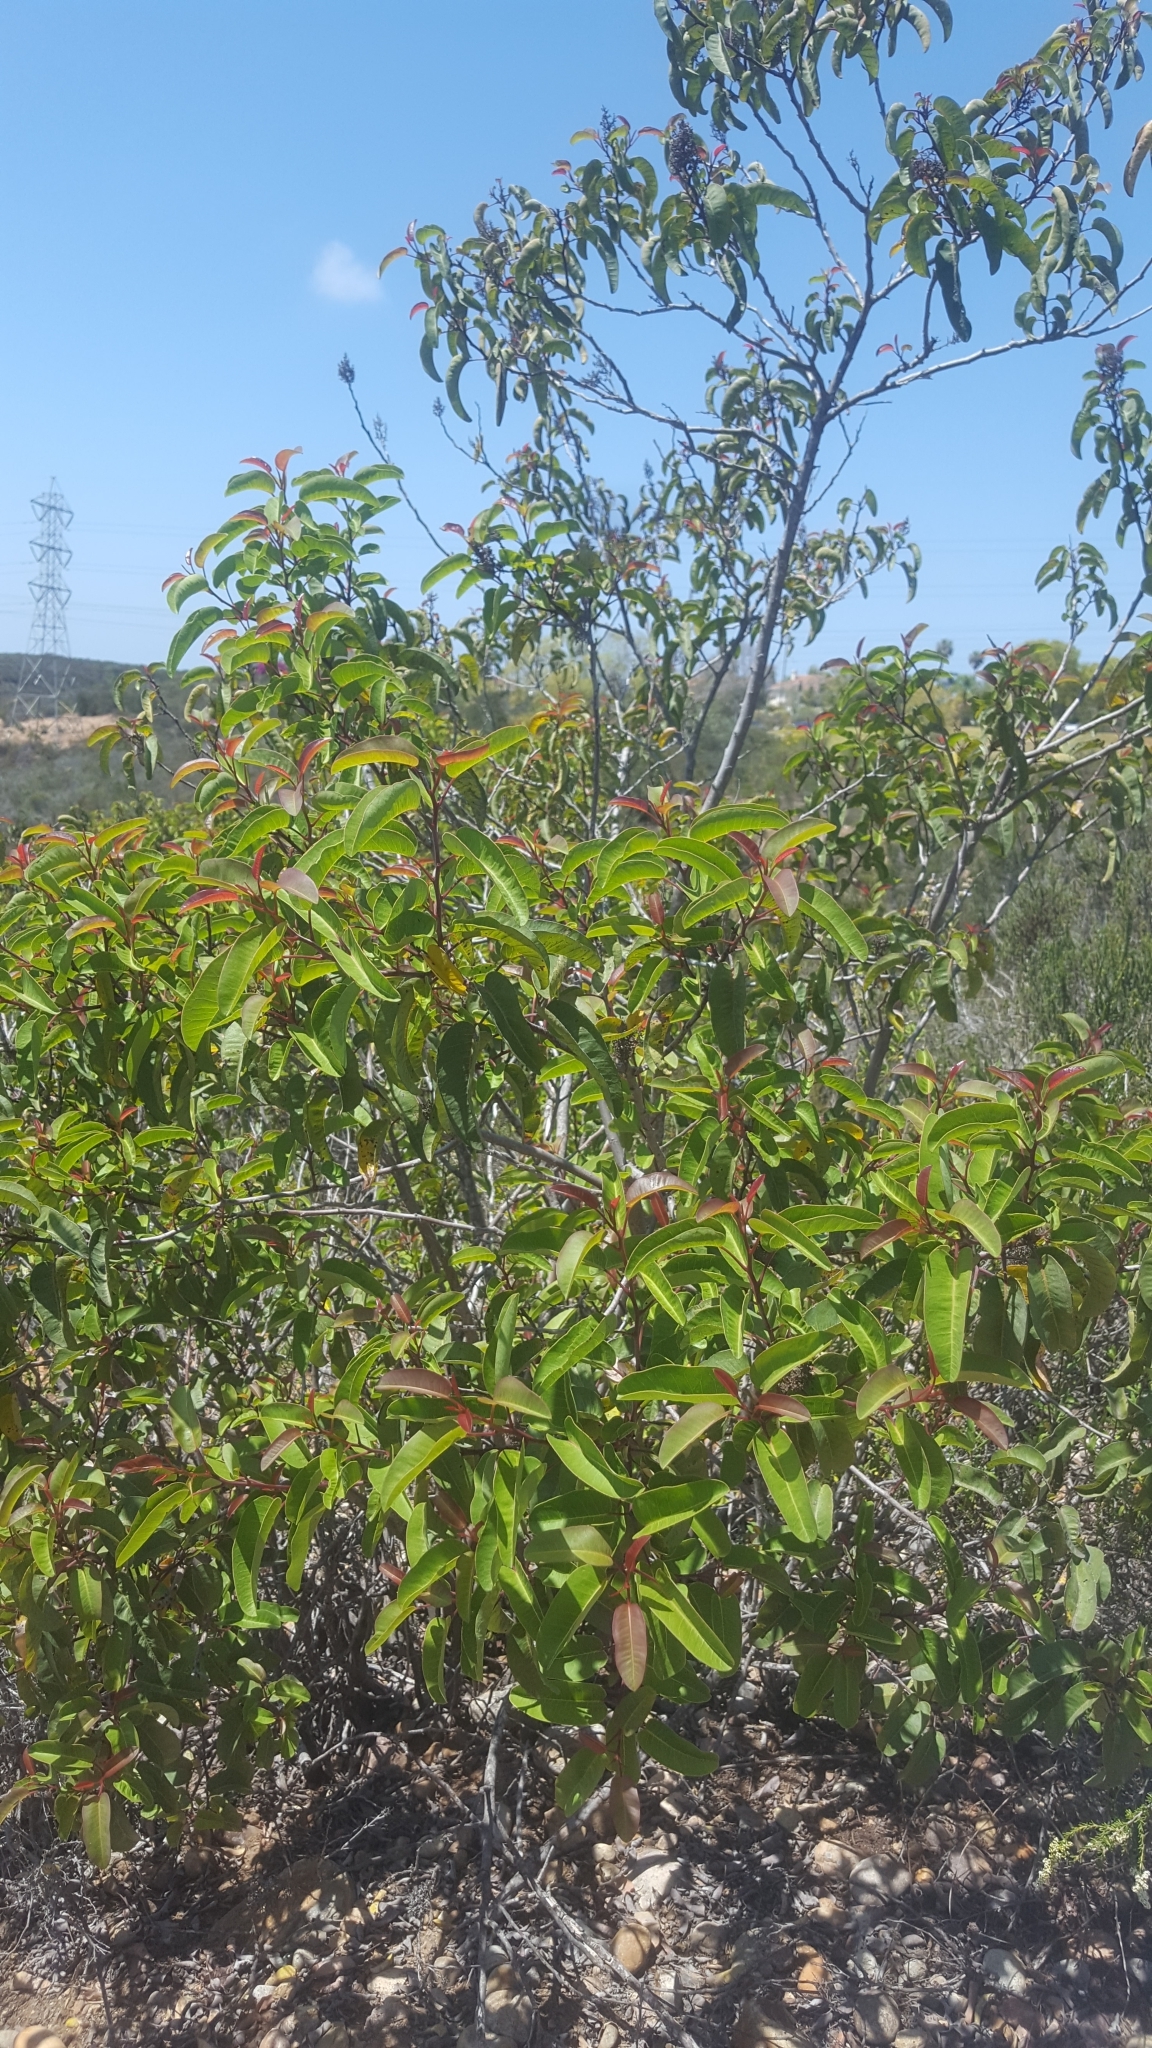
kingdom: Plantae
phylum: Tracheophyta
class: Magnoliopsida
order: Sapindales
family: Anacardiaceae
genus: Malosma
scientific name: Malosma laurina
